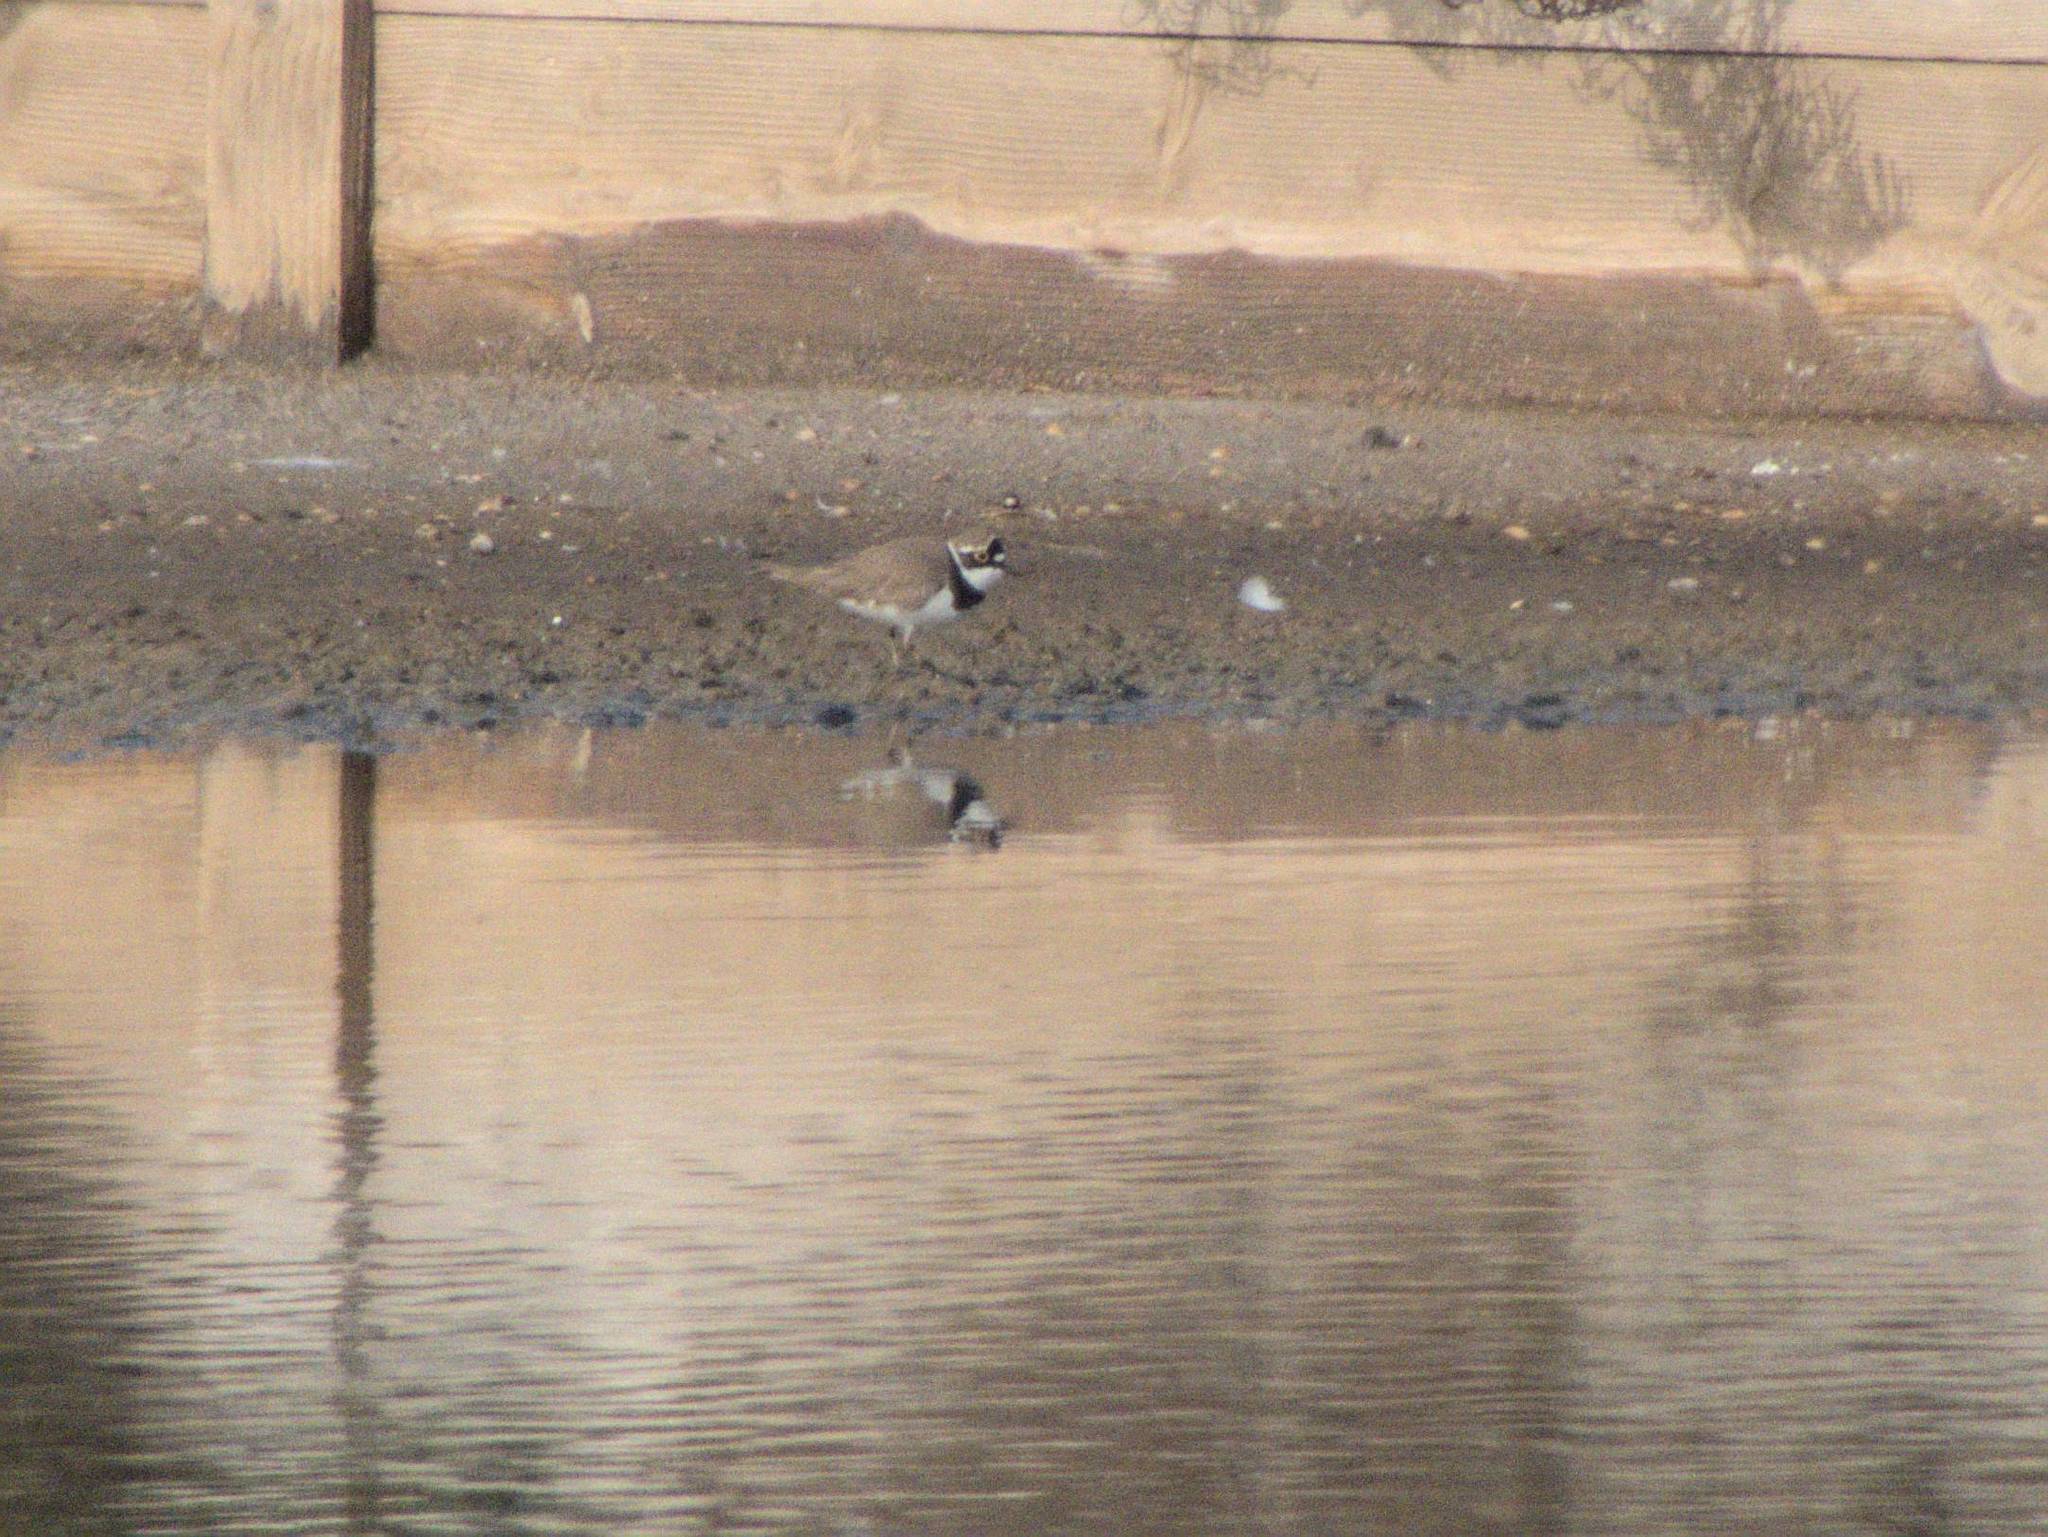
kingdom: Animalia
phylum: Chordata
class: Aves
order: Charadriiformes
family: Charadriidae
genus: Charadrius
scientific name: Charadrius dubius
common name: Little ringed plover
